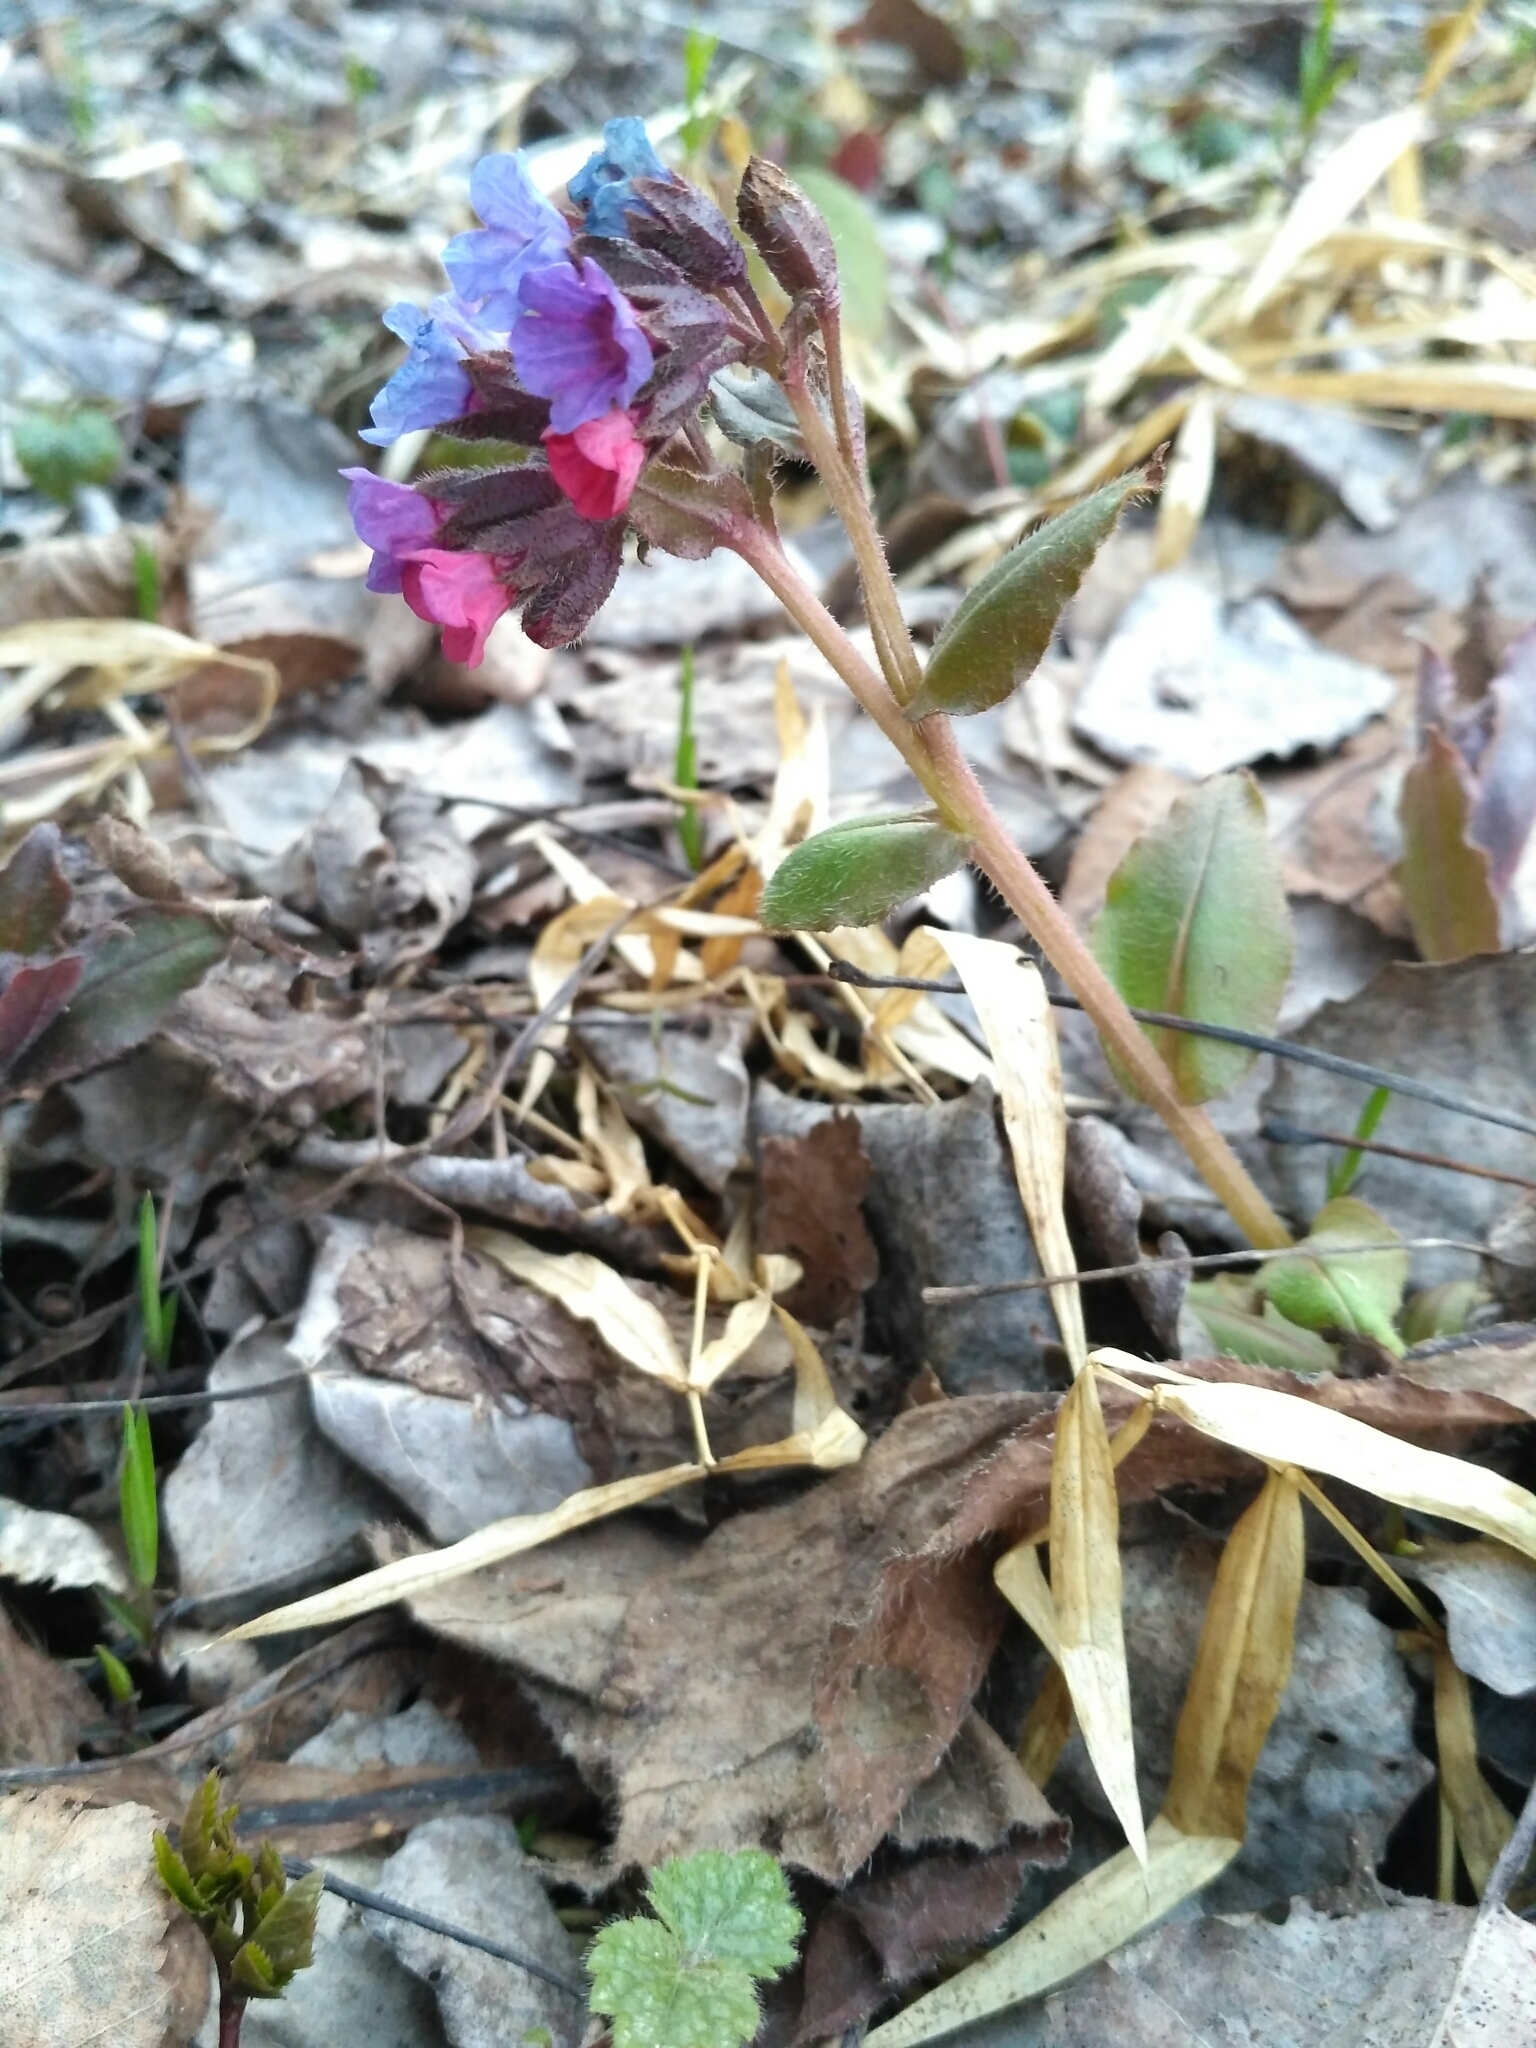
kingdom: Plantae
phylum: Tracheophyta
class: Magnoliopsida
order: Boraginales
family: Boraginaceae
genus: Pulmonaria
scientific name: Pulmonaria obscura
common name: Suffolk lungwort
